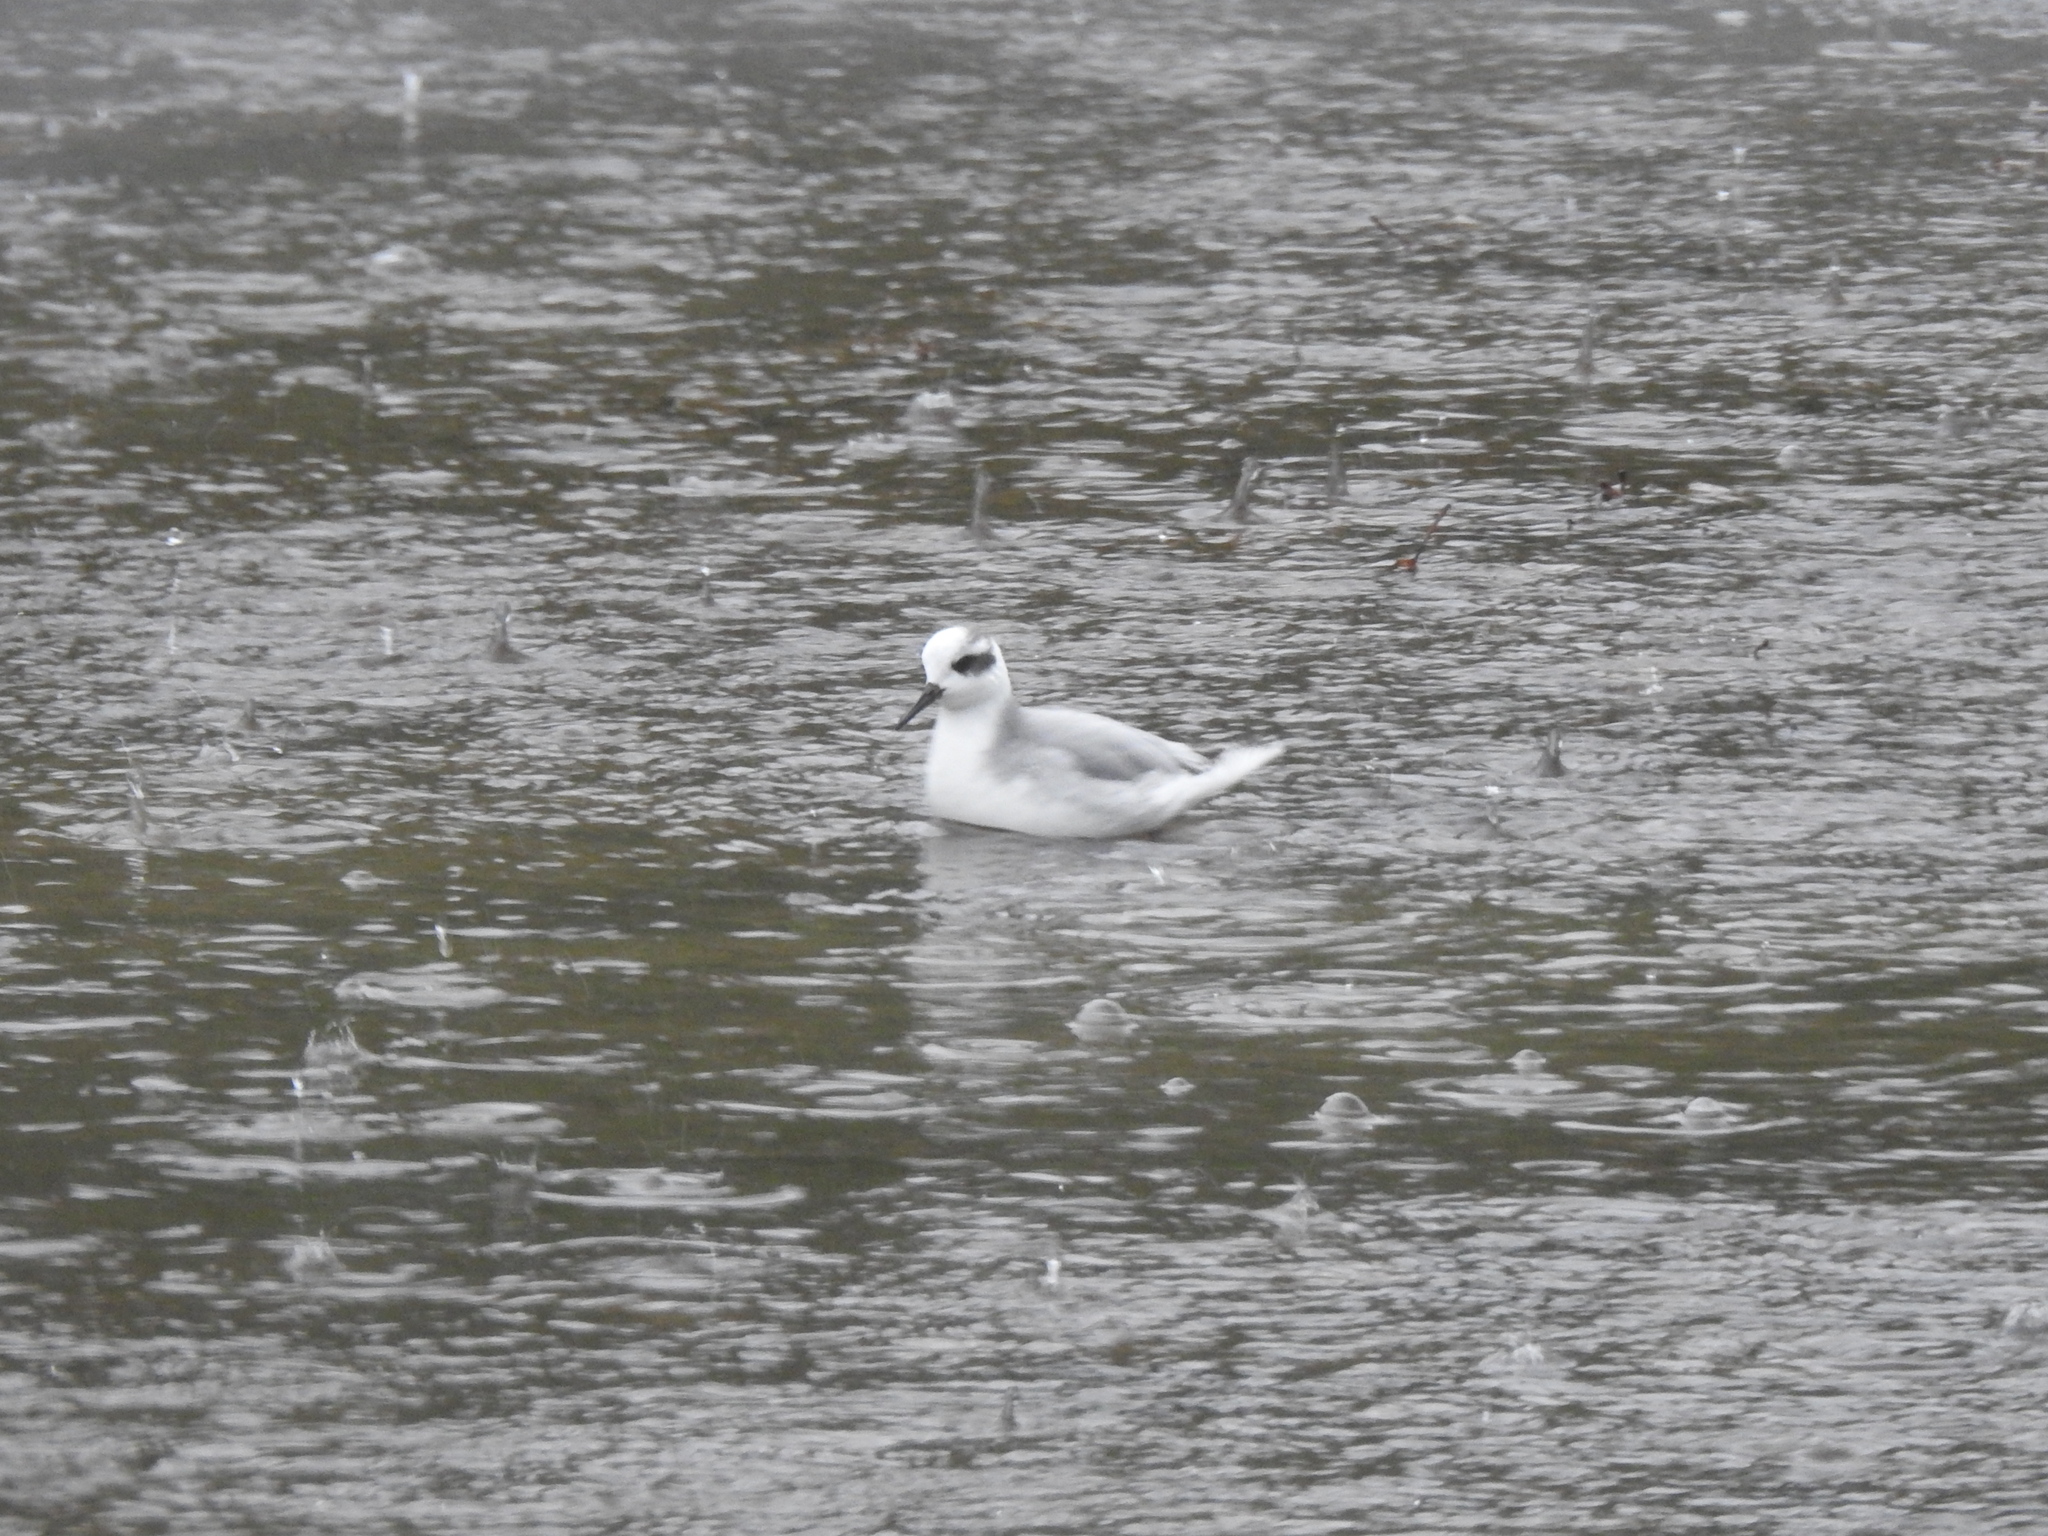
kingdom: Animalia
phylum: Chordata
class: Aves
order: Charadriiformes
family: Scolopacidae
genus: Phalaropus
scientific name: Phalaropus fulicarius
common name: Red phalarope
